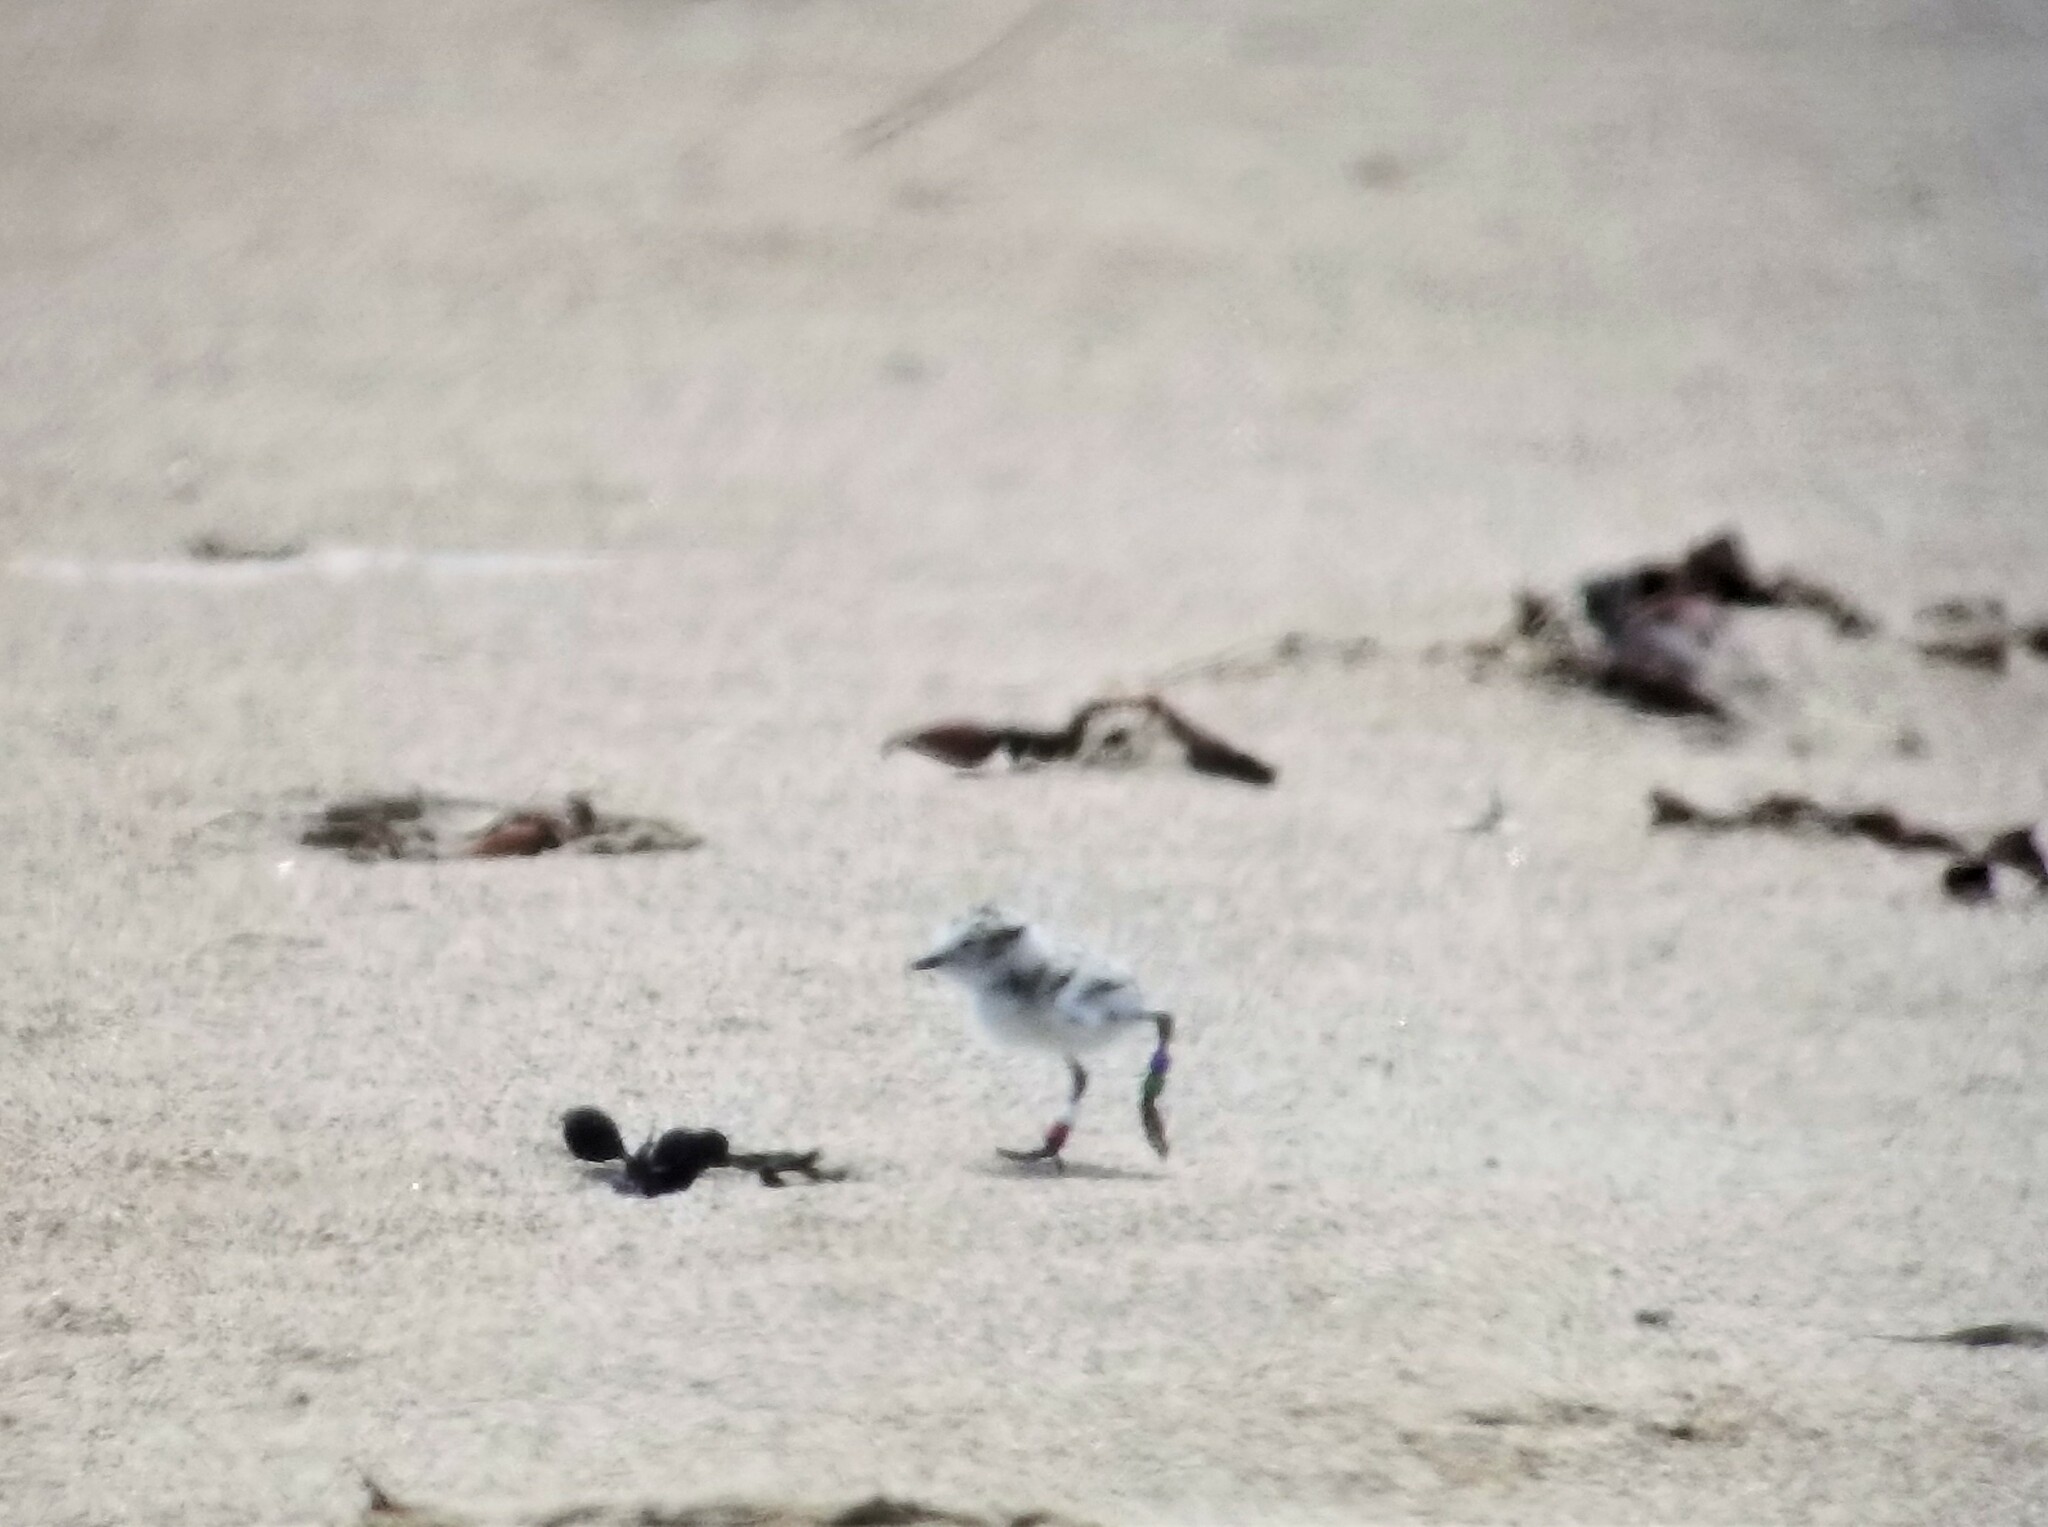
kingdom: Animalia
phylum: Chordata
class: Aves
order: Charadriiformes
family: Charadriidae
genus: Anarhynchus
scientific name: Anarhynchus
